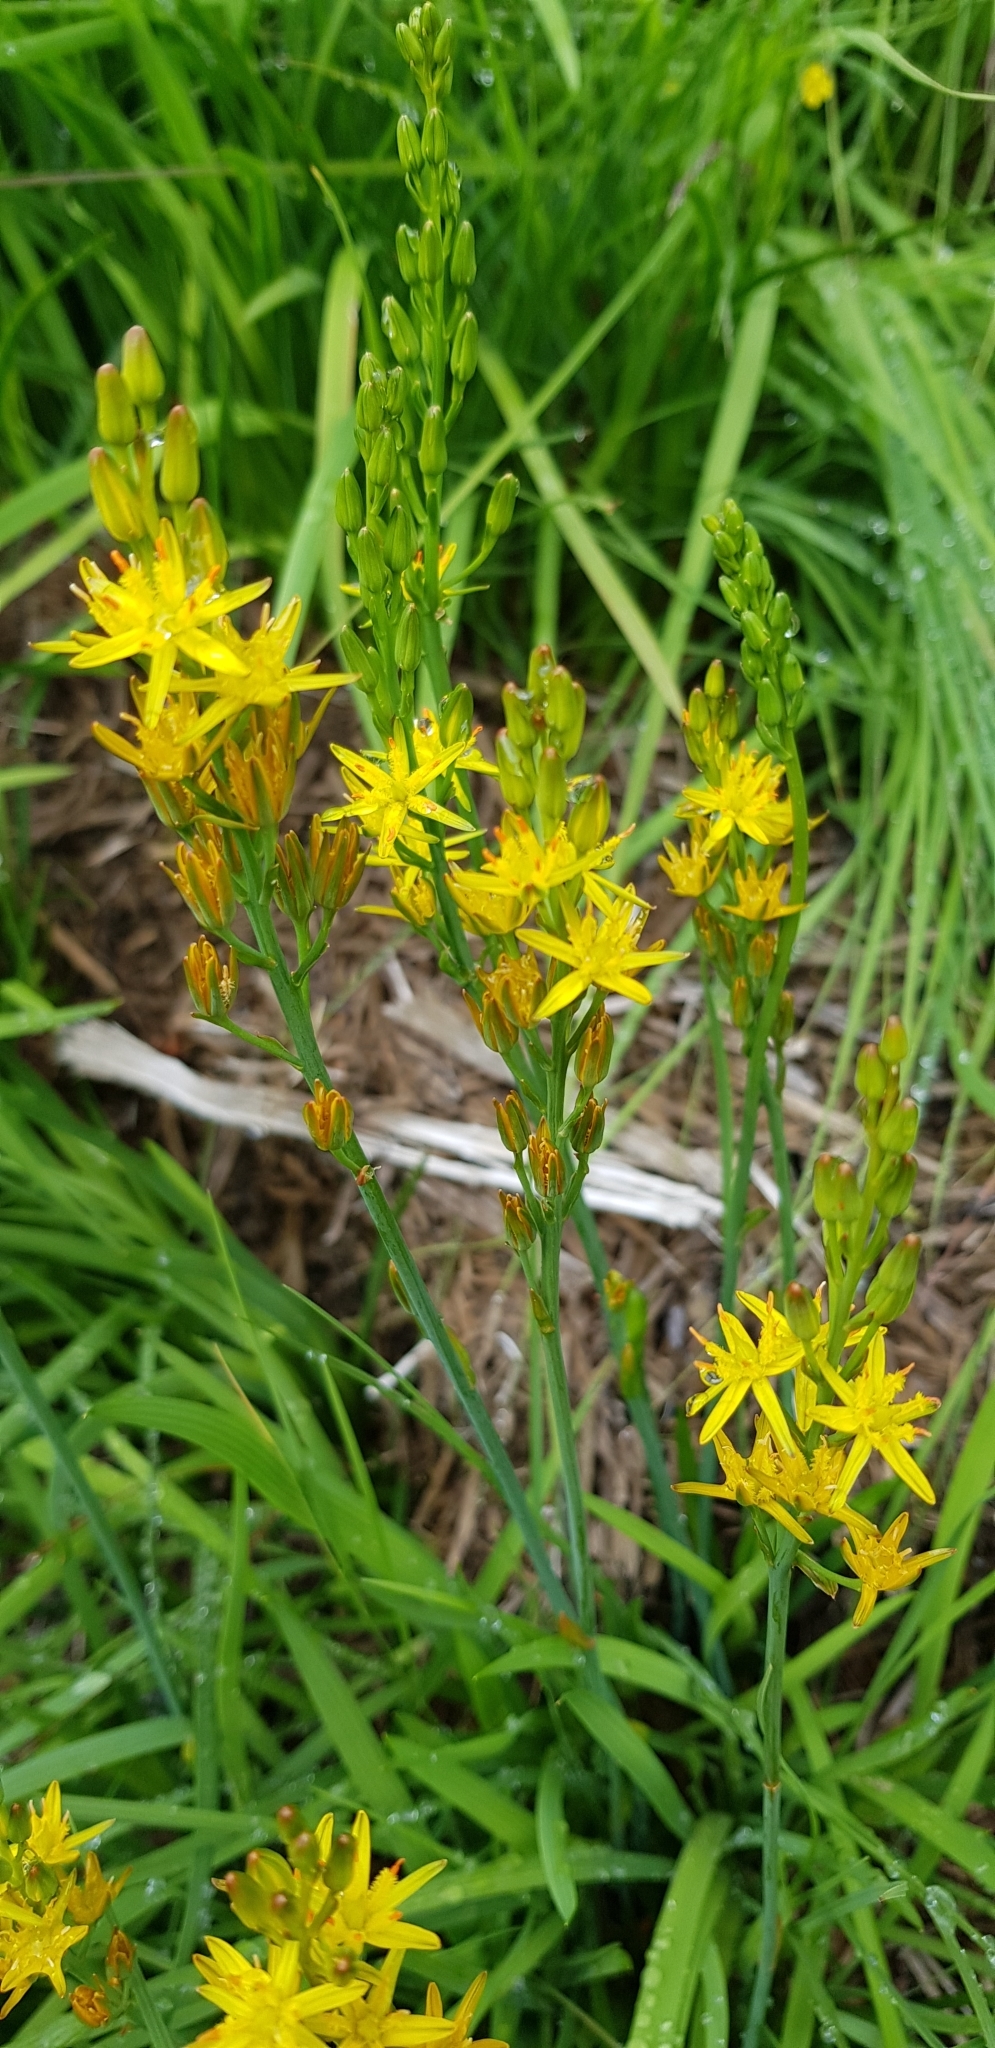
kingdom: Plantae
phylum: Tracheophyta
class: Liliopsida
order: Dioscoreales
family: Nartheciaceae
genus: Narthecium
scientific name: Narthecium ossifragum
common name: Bog asphodel
